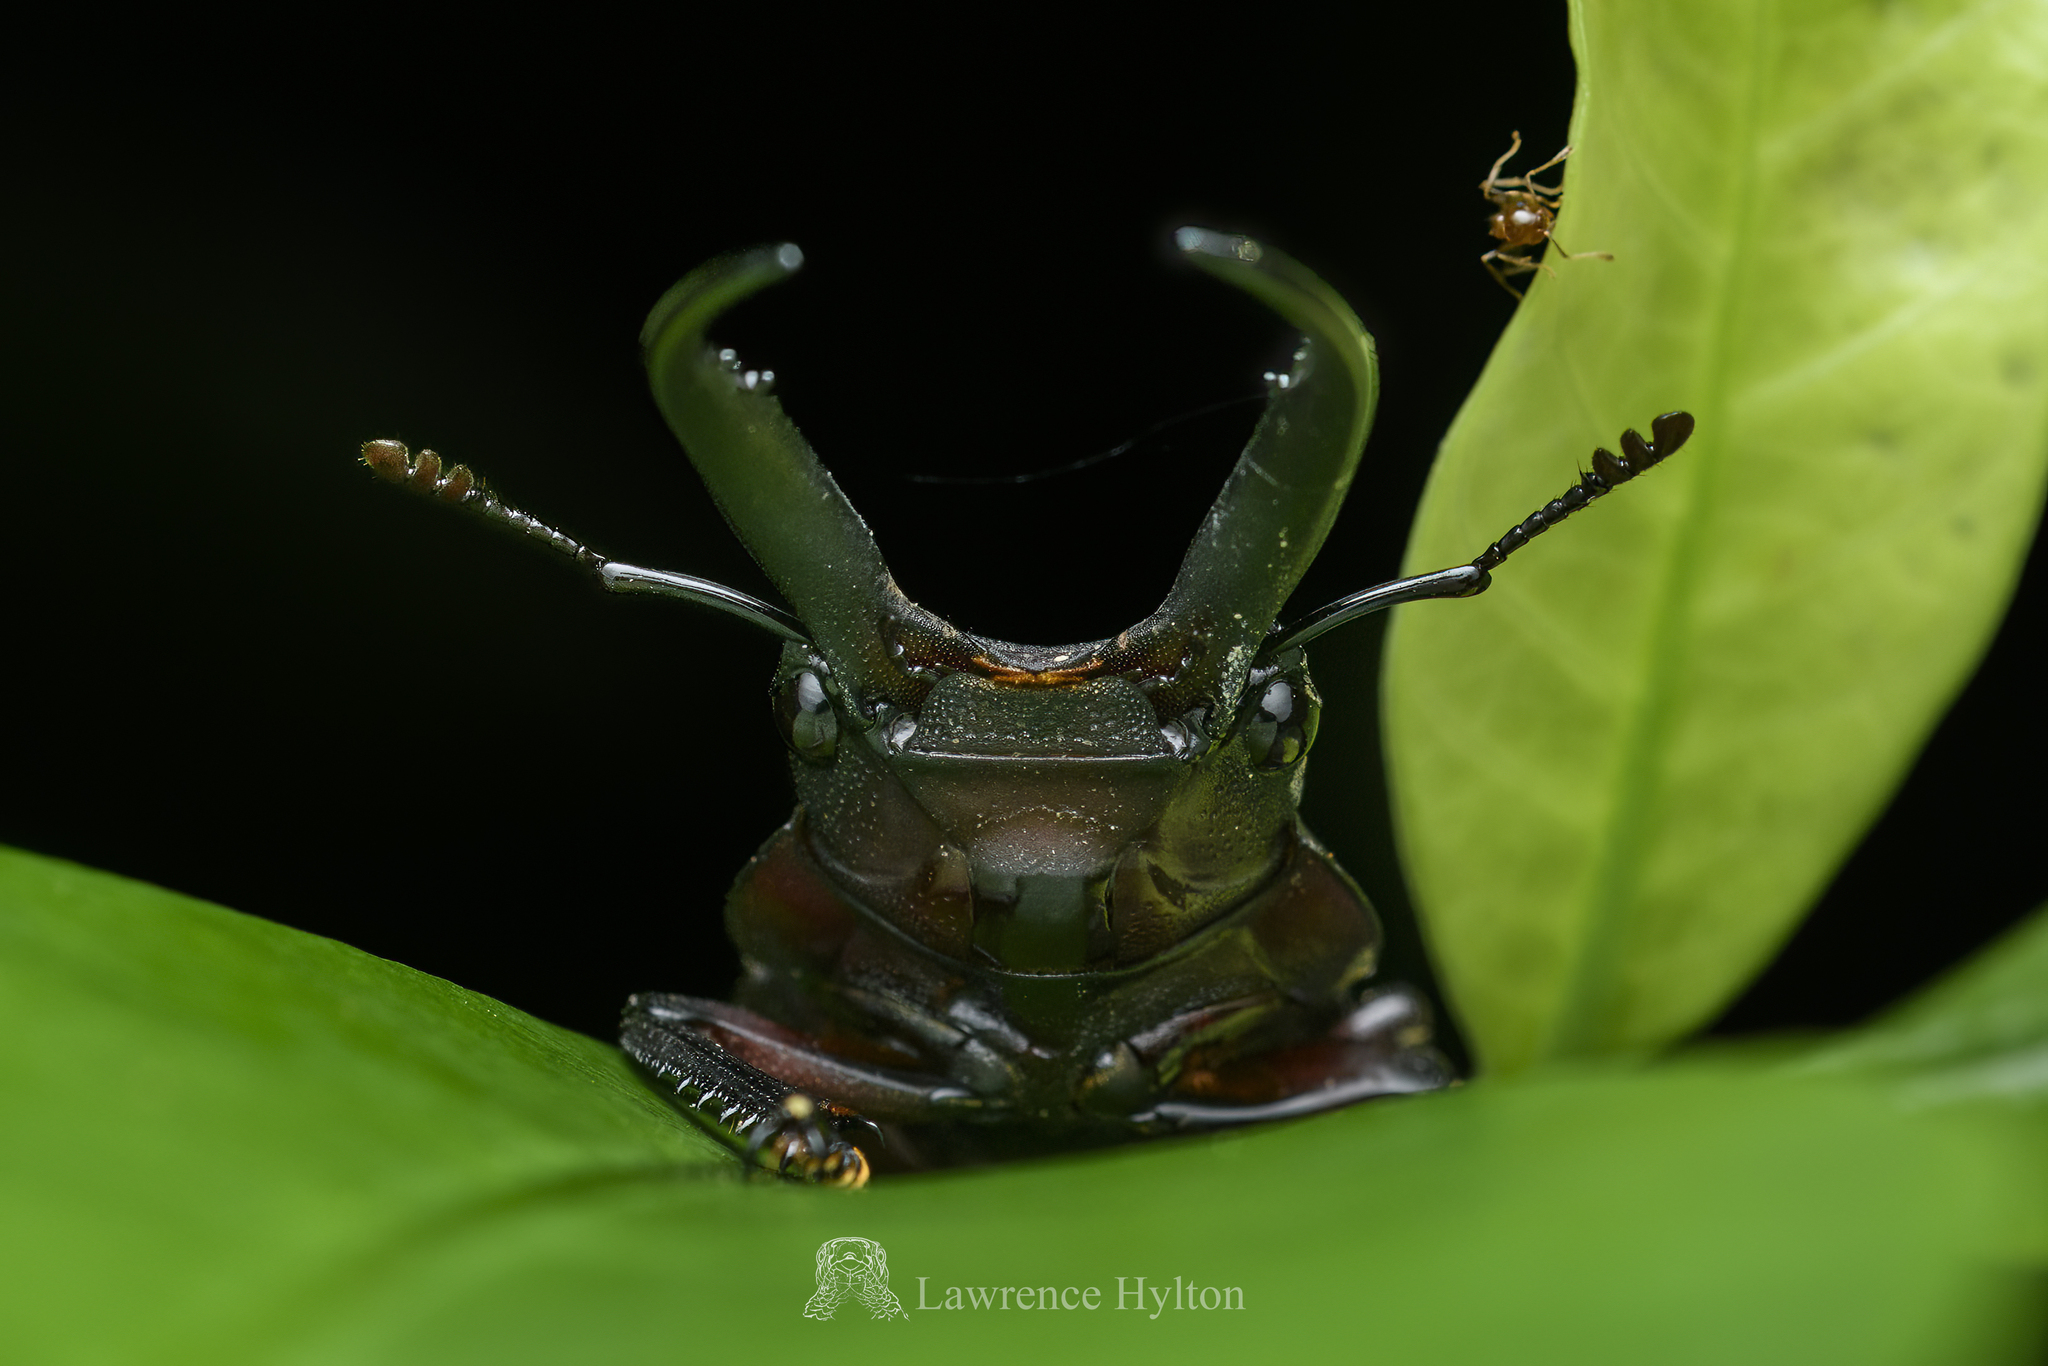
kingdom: Animalia
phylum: Arthropoda
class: Insecta
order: Coleoptera
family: Lucanidae
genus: Epidorcus
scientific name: Epidorcus gracilis
